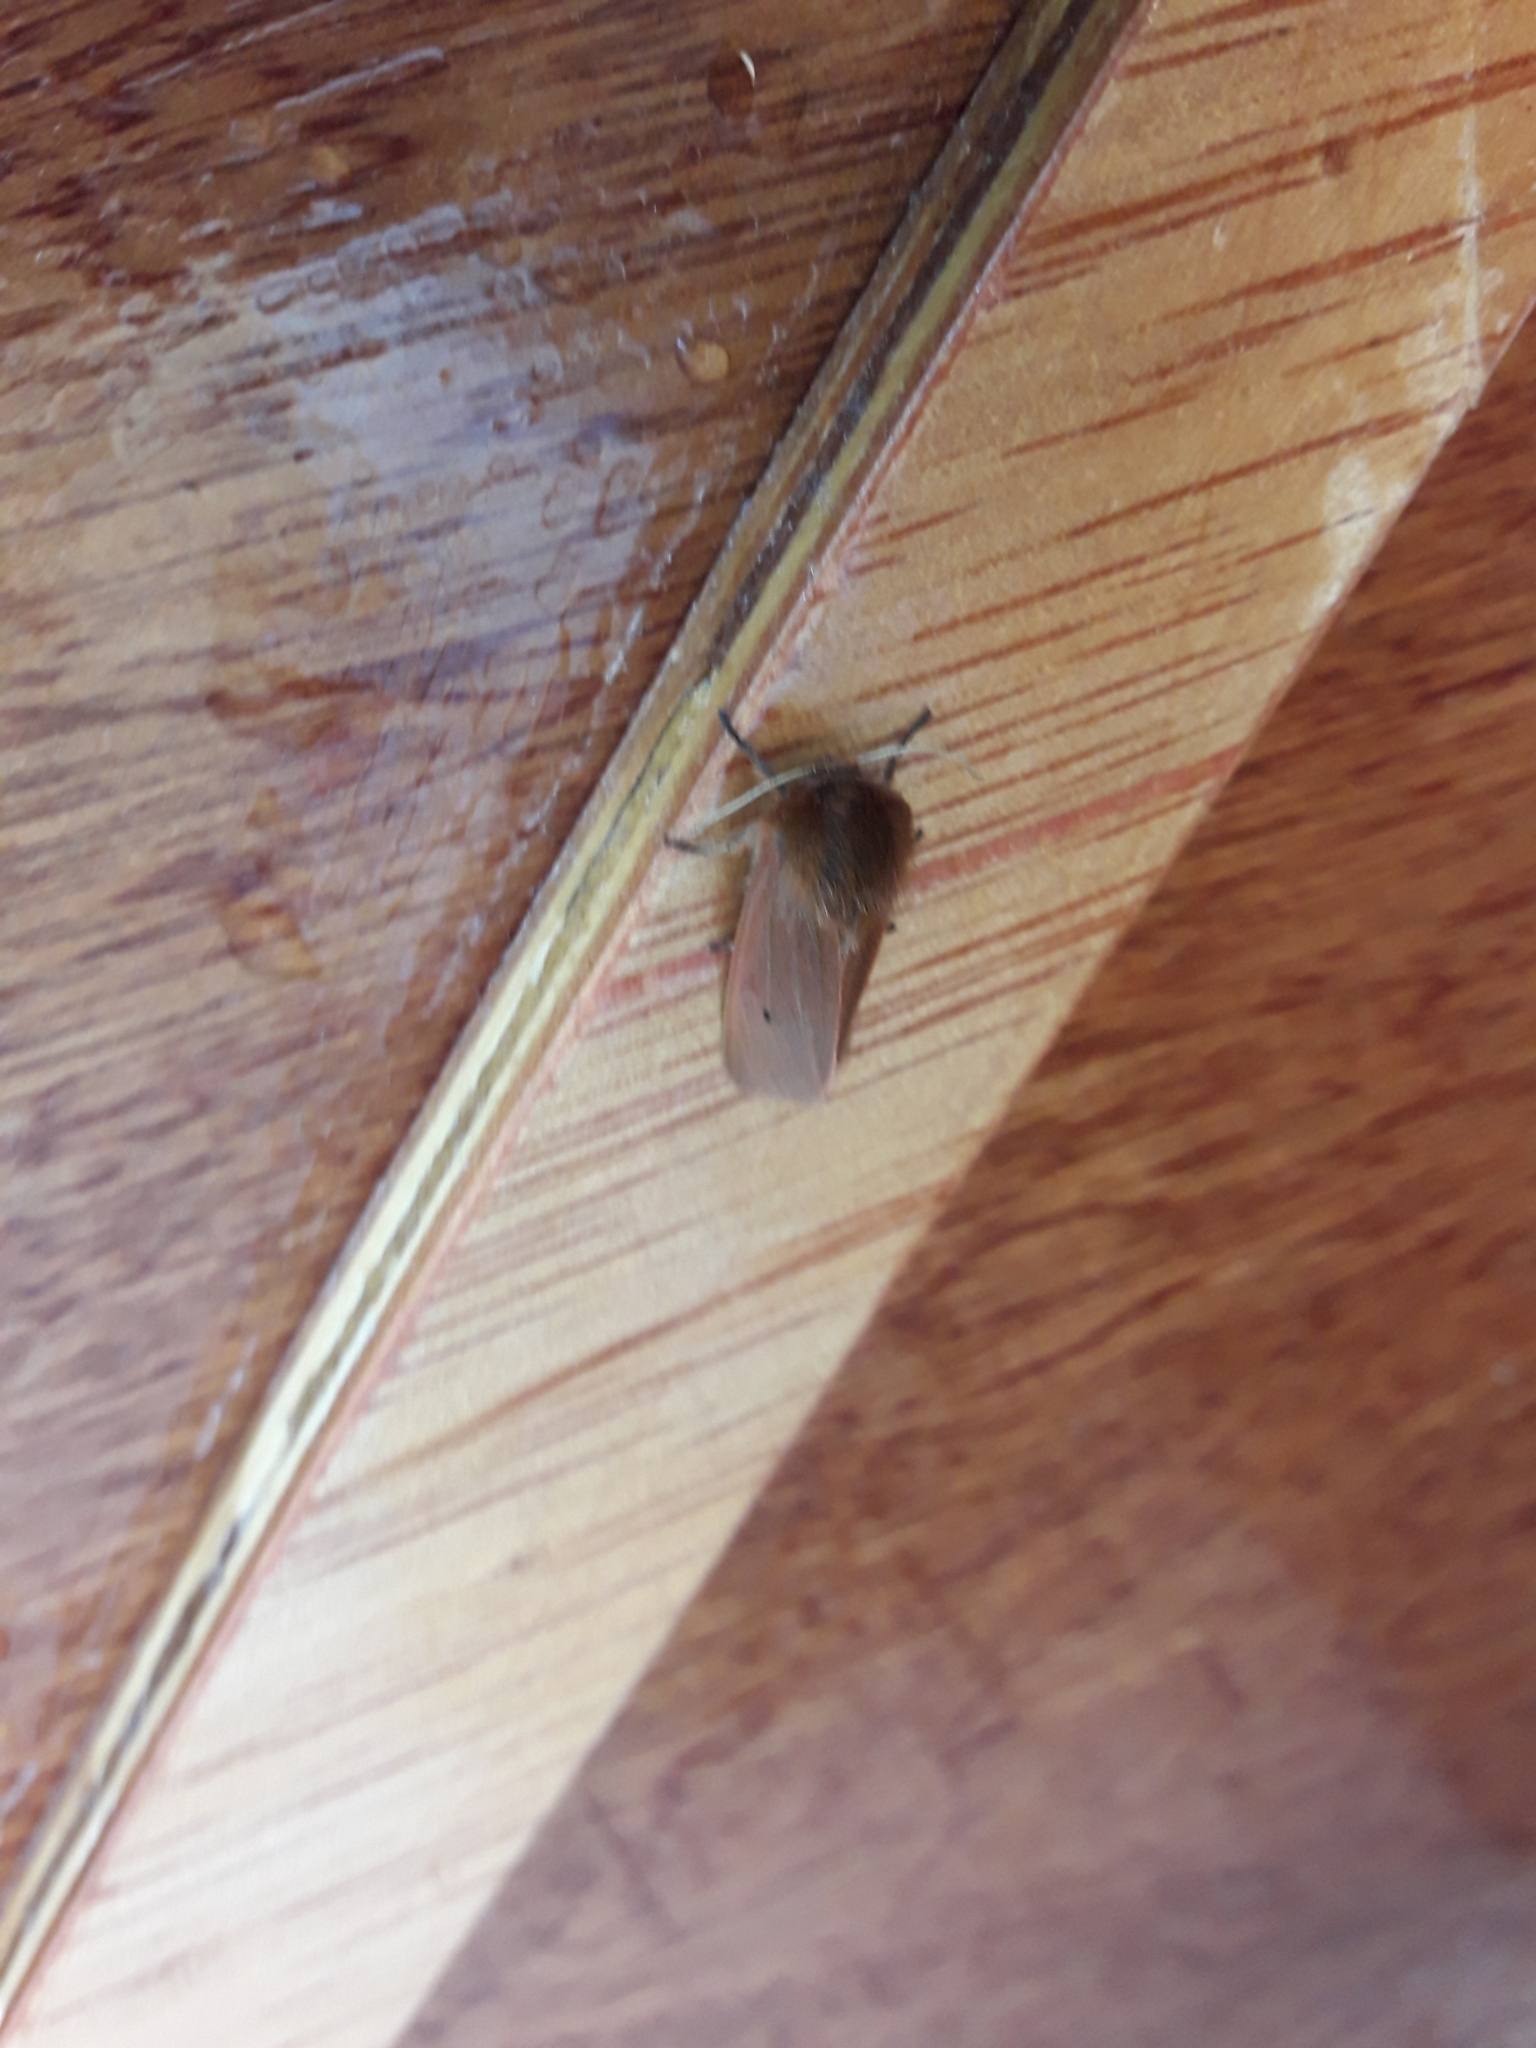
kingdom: Animalia
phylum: Arthropoda
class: Insecta
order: Lepidoptera
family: Erebidae
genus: Phragmatobia
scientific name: Phragmatobia fuliginosa
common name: Ruby tiger
